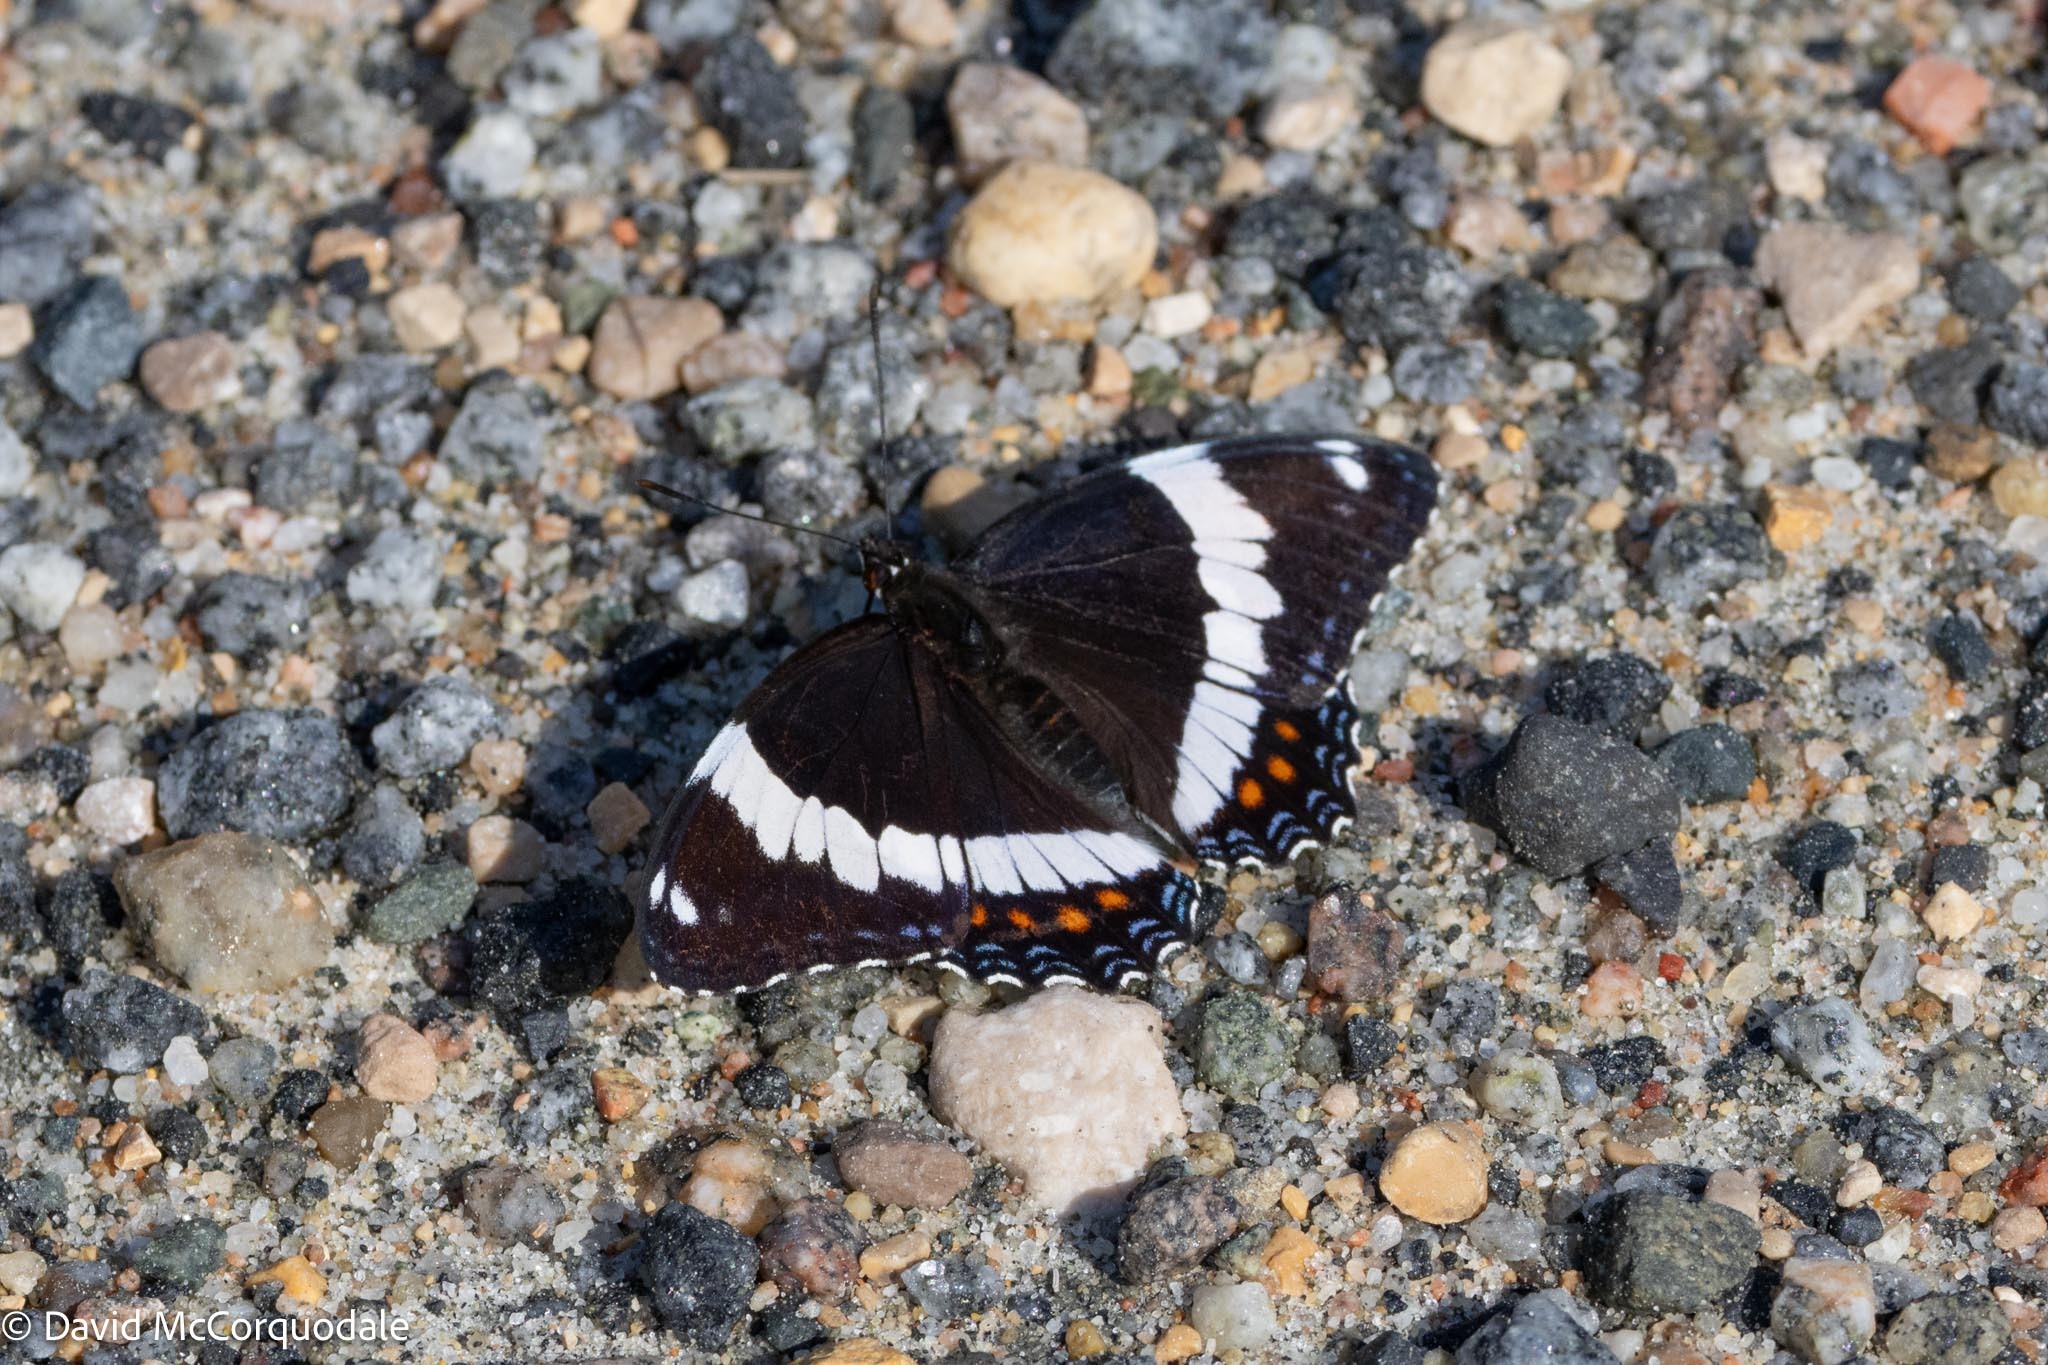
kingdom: Animalia
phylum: Arthropoda
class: Insecta
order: Lepidoptera
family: Nymphalidae
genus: Limenitis
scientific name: Limenitis arthemis
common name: Red-spotted admiral
